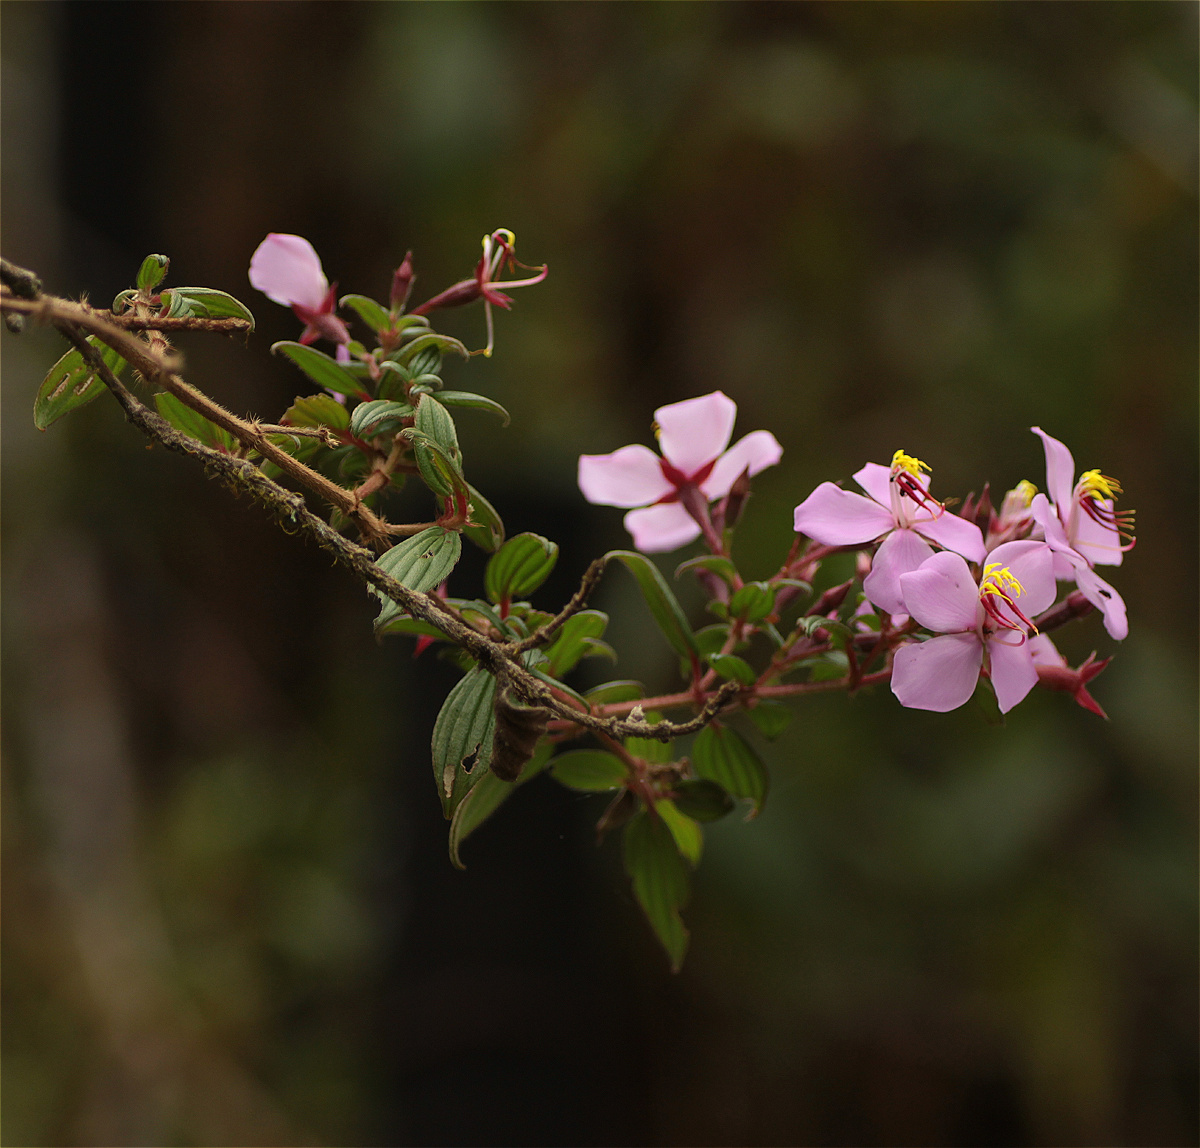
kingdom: Plantae
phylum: Tracheophyta
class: Magnoliopsida
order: Myrtales
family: Melastomataceae
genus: Monochaetum
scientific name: Monochaetum hartwegianum
